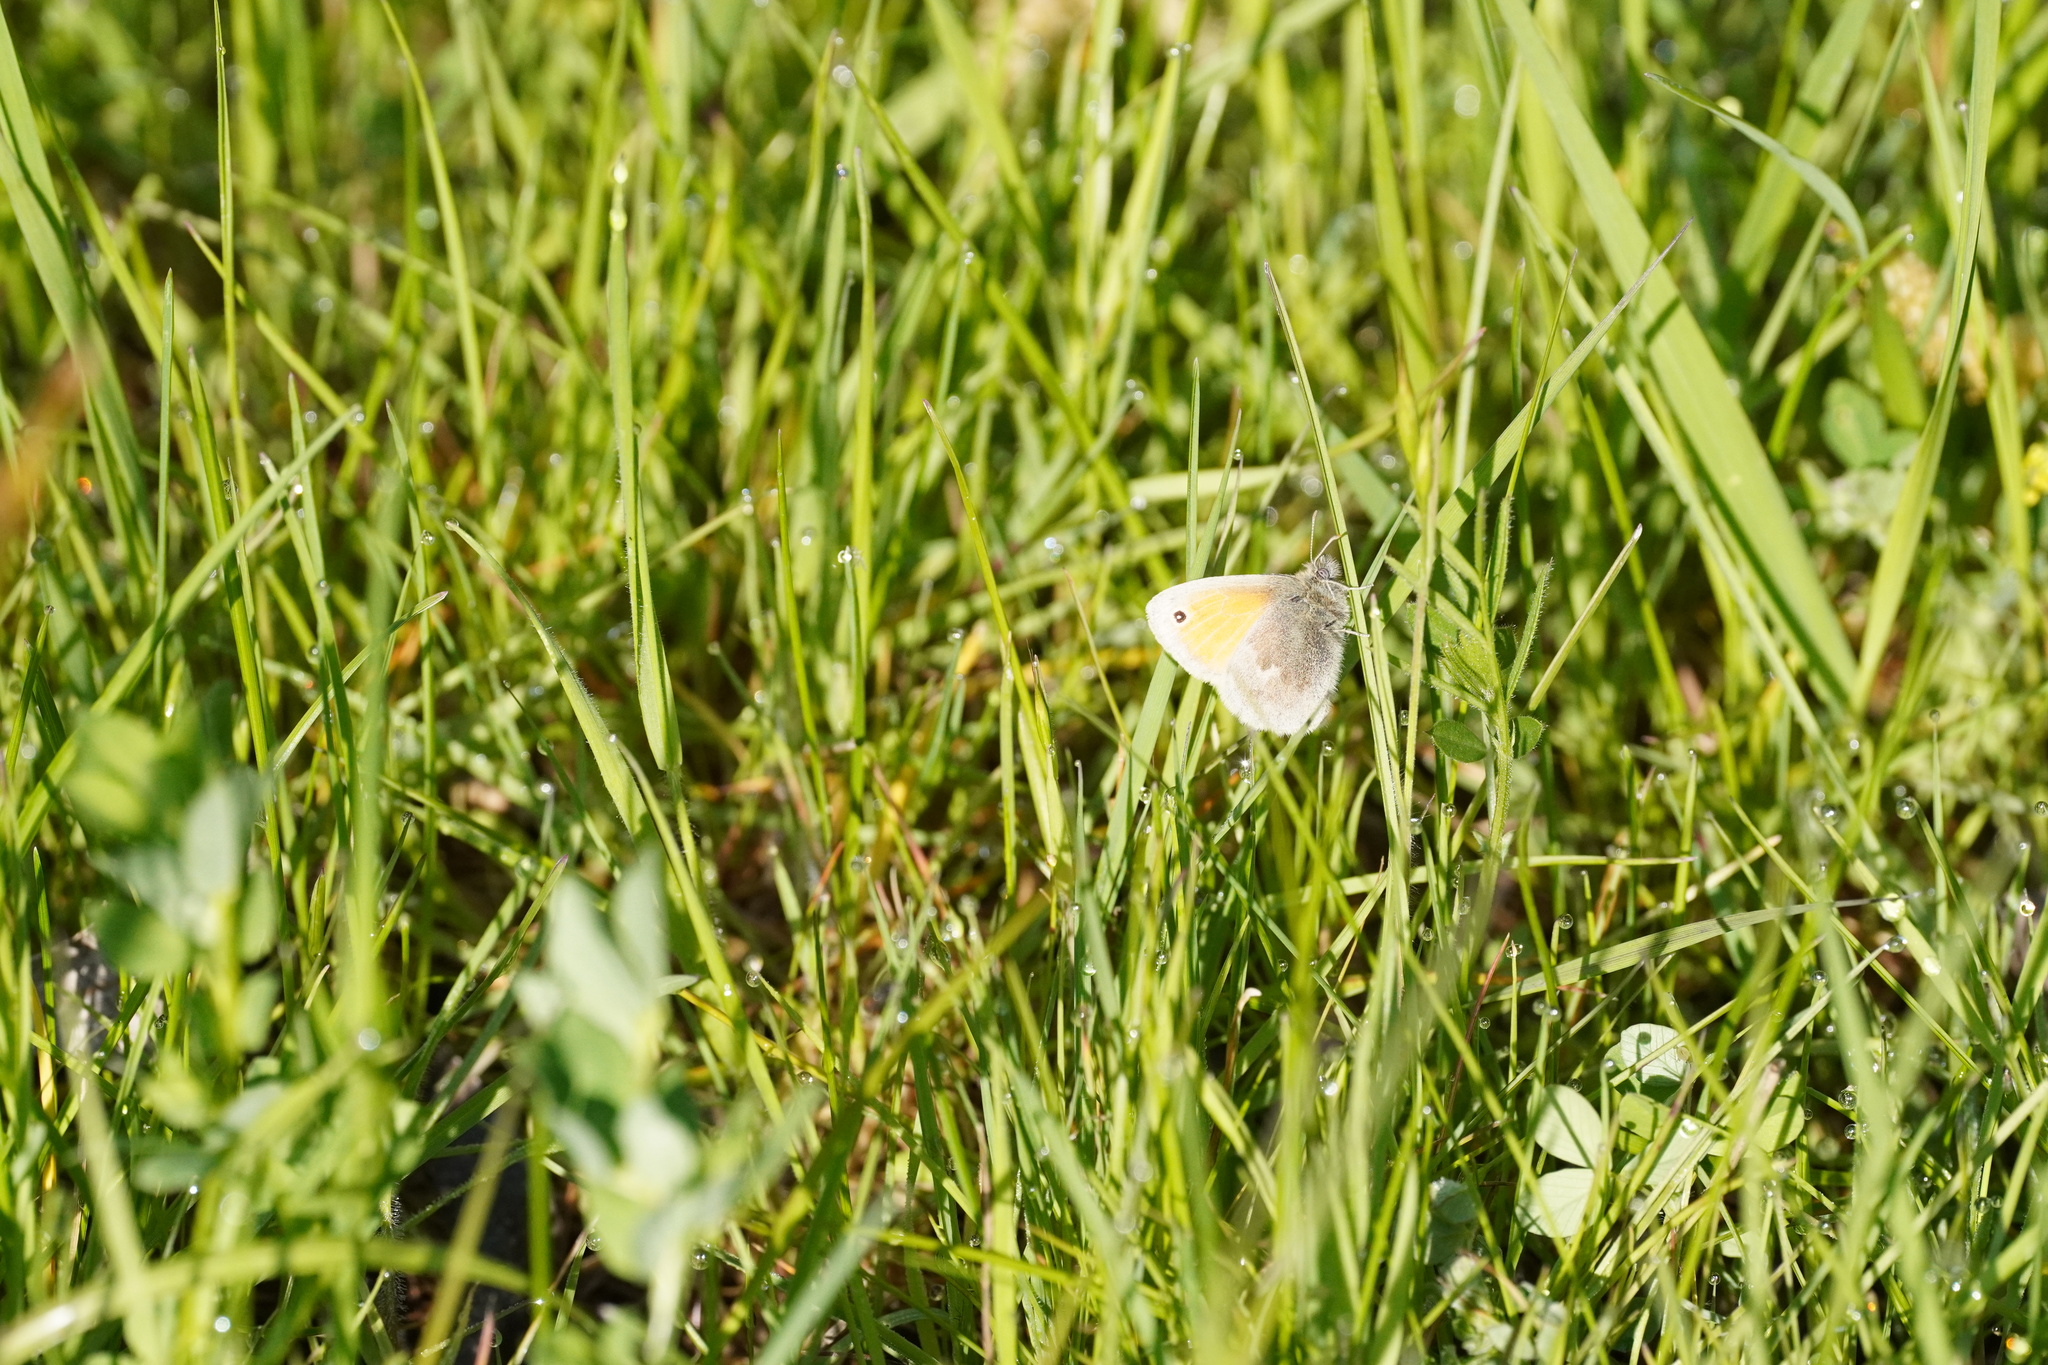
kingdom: Animalia
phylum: Arthropoda
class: Insecta
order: Lepidoptera
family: Nymphalidae
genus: Coenonympha
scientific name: Coenonympha pamphilus
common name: Small heath
